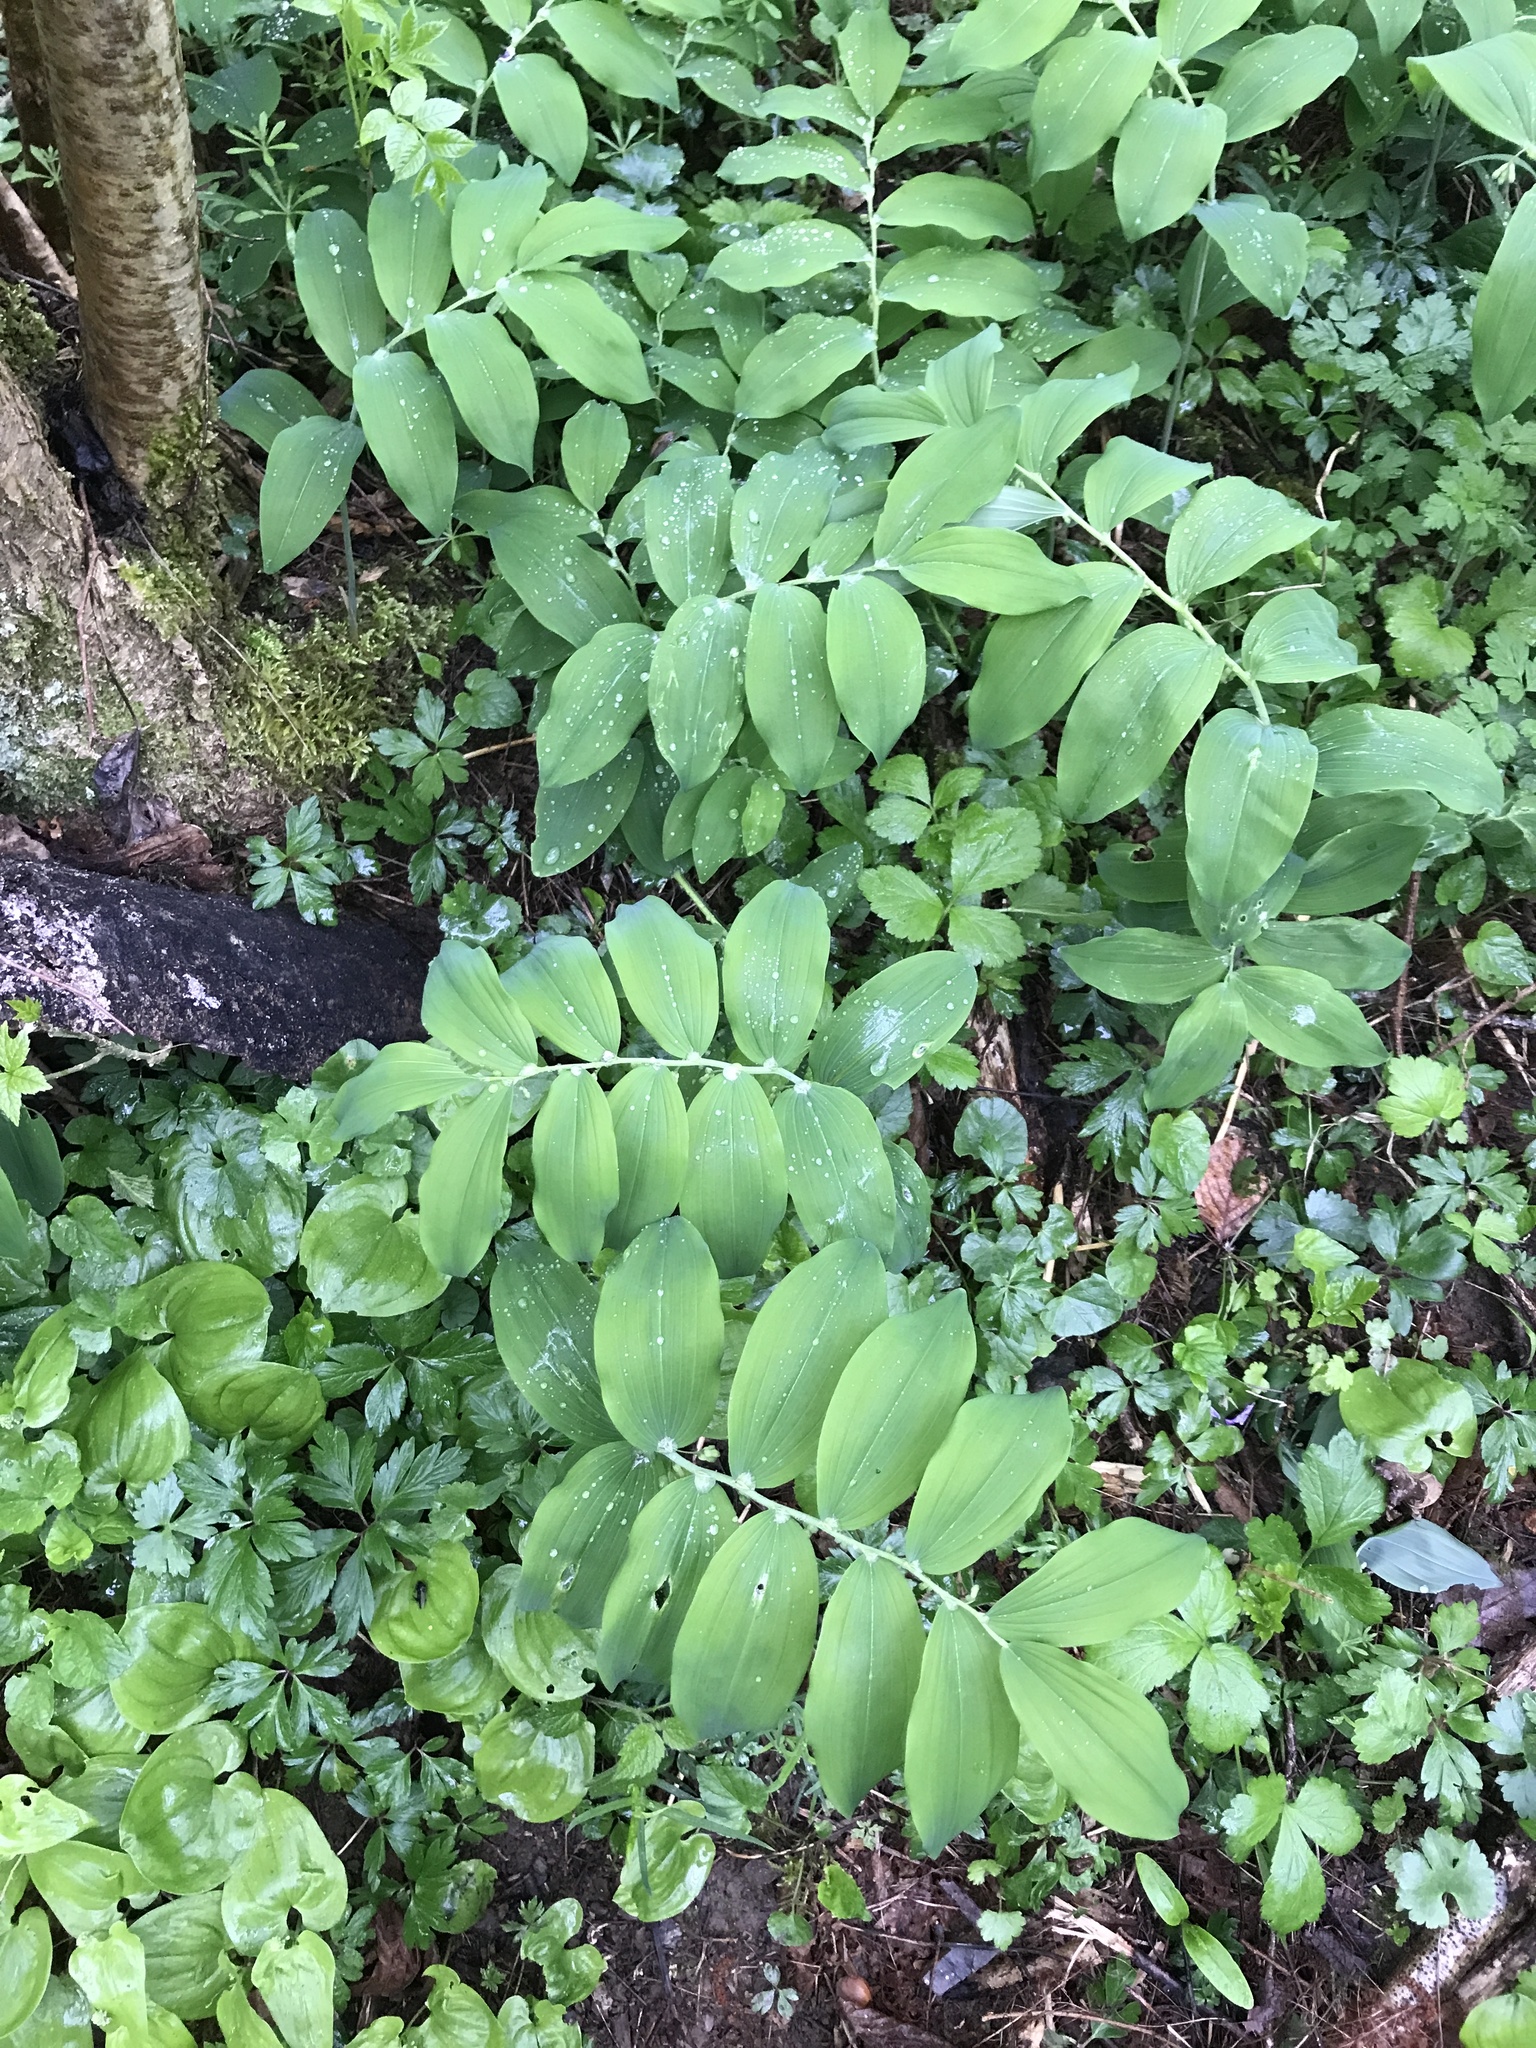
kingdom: Plantae
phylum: Tracheophyta
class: Liliopsida
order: Asparagales
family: Asparagaceae
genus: Polygonatum
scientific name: Polygonatum multiflorum
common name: Solomon's-seal
